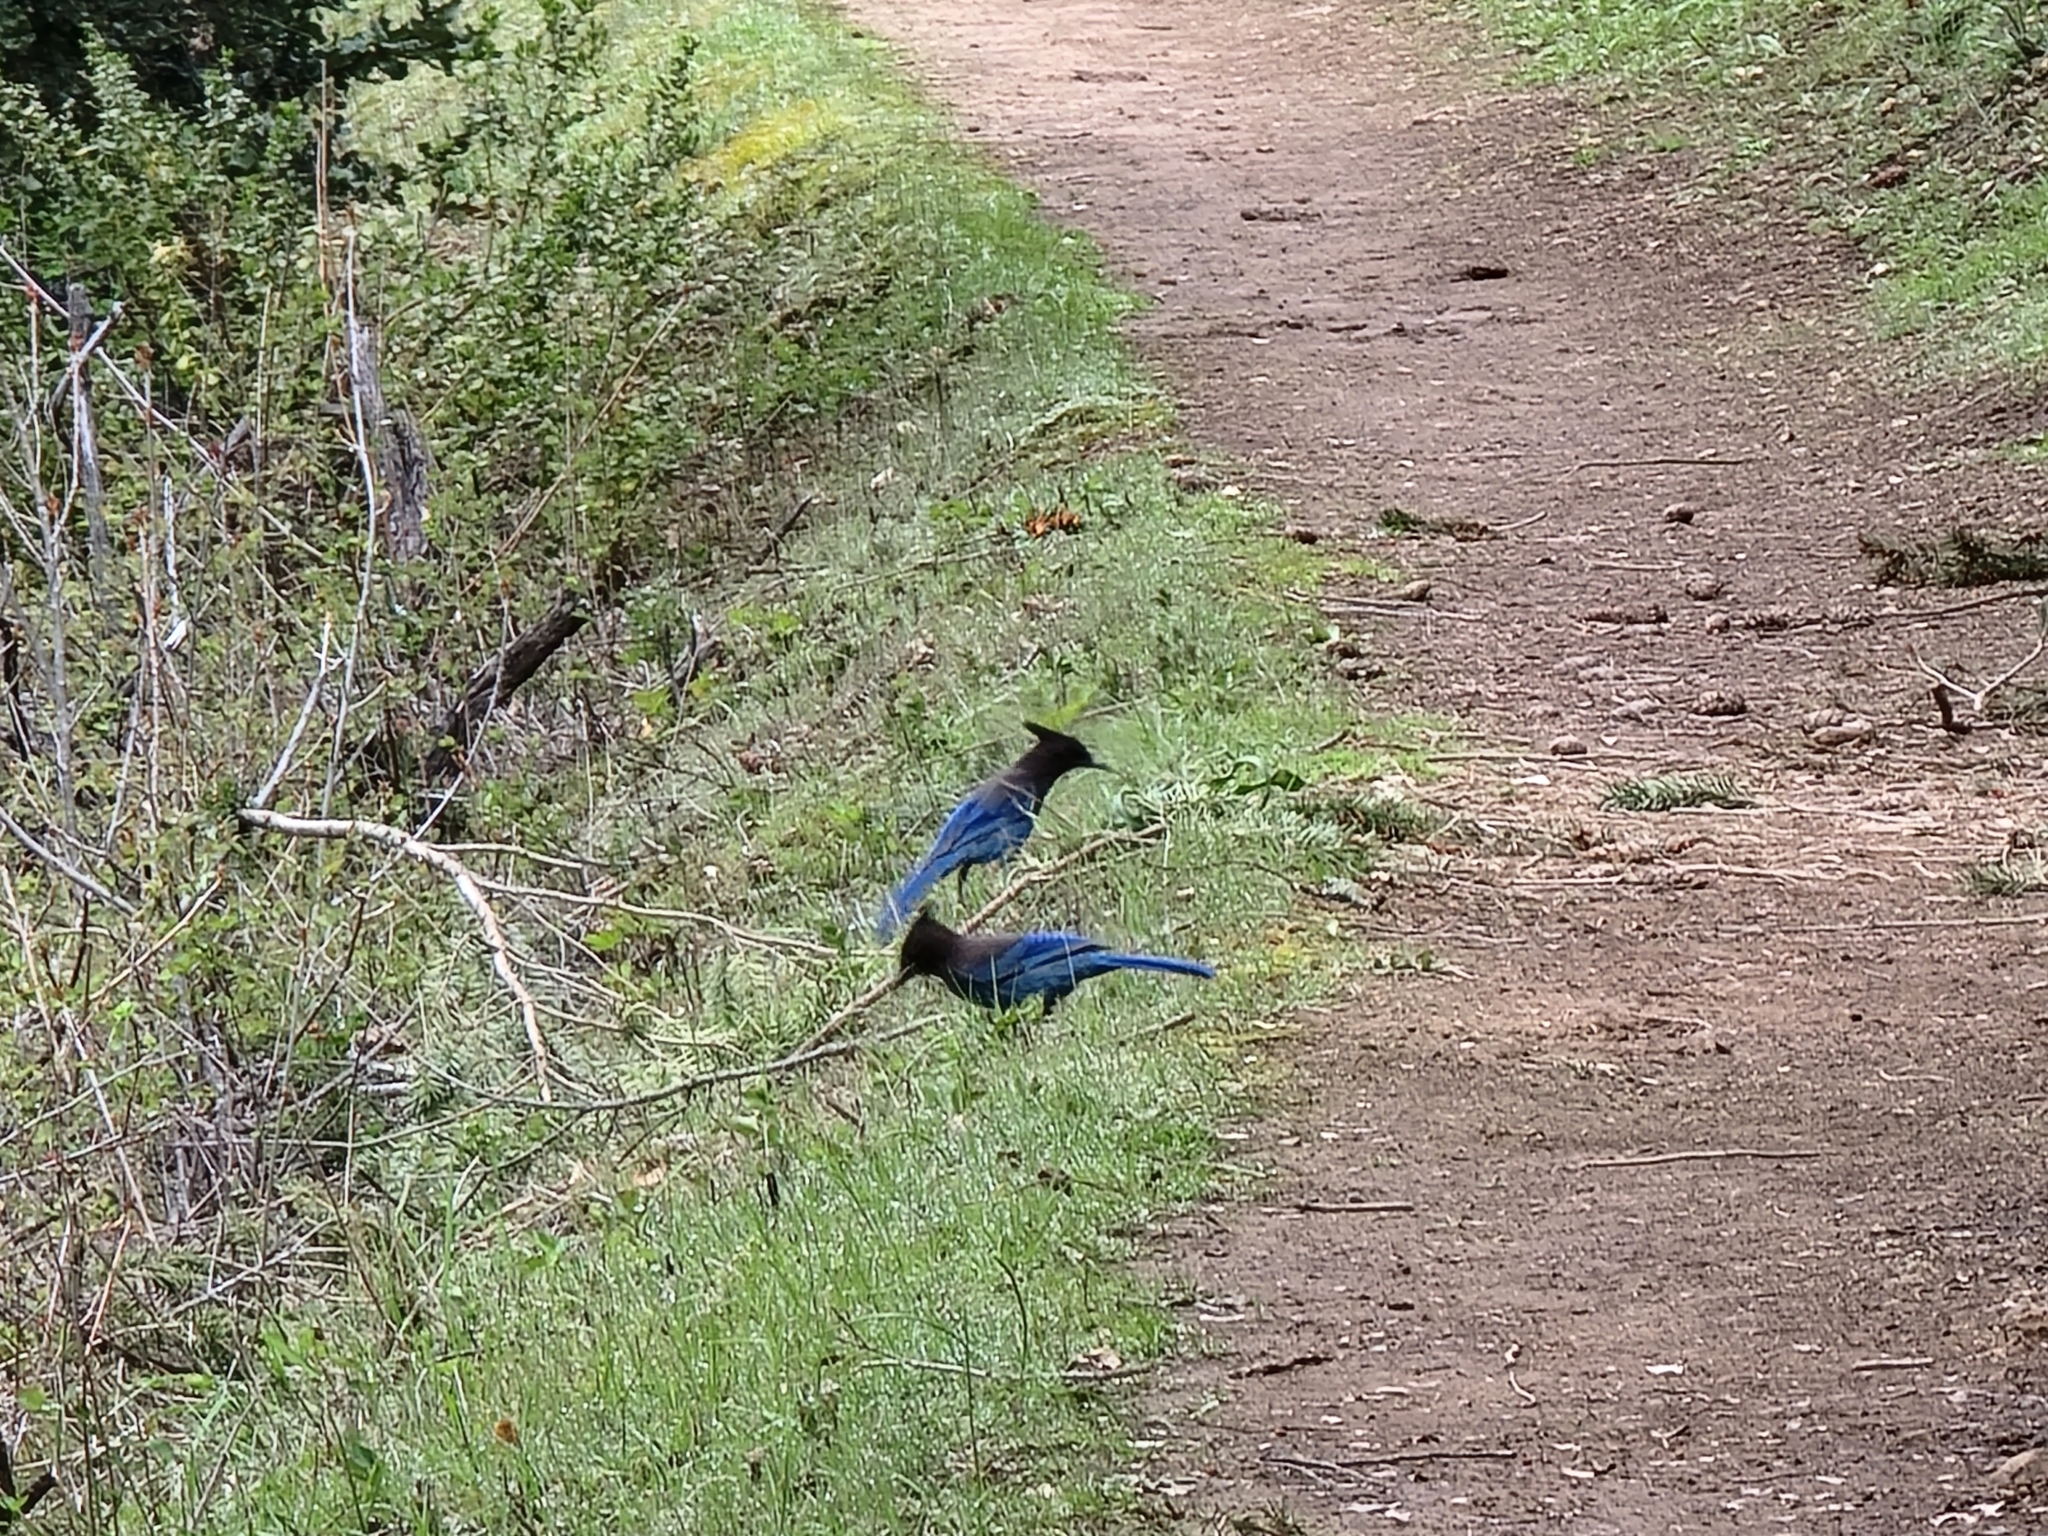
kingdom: Animalia
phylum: Chordata
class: Aves
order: Passeriformes
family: Corvidae
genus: Cyanocitta
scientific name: Cyanocitta stelleri
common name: Steller's jay
